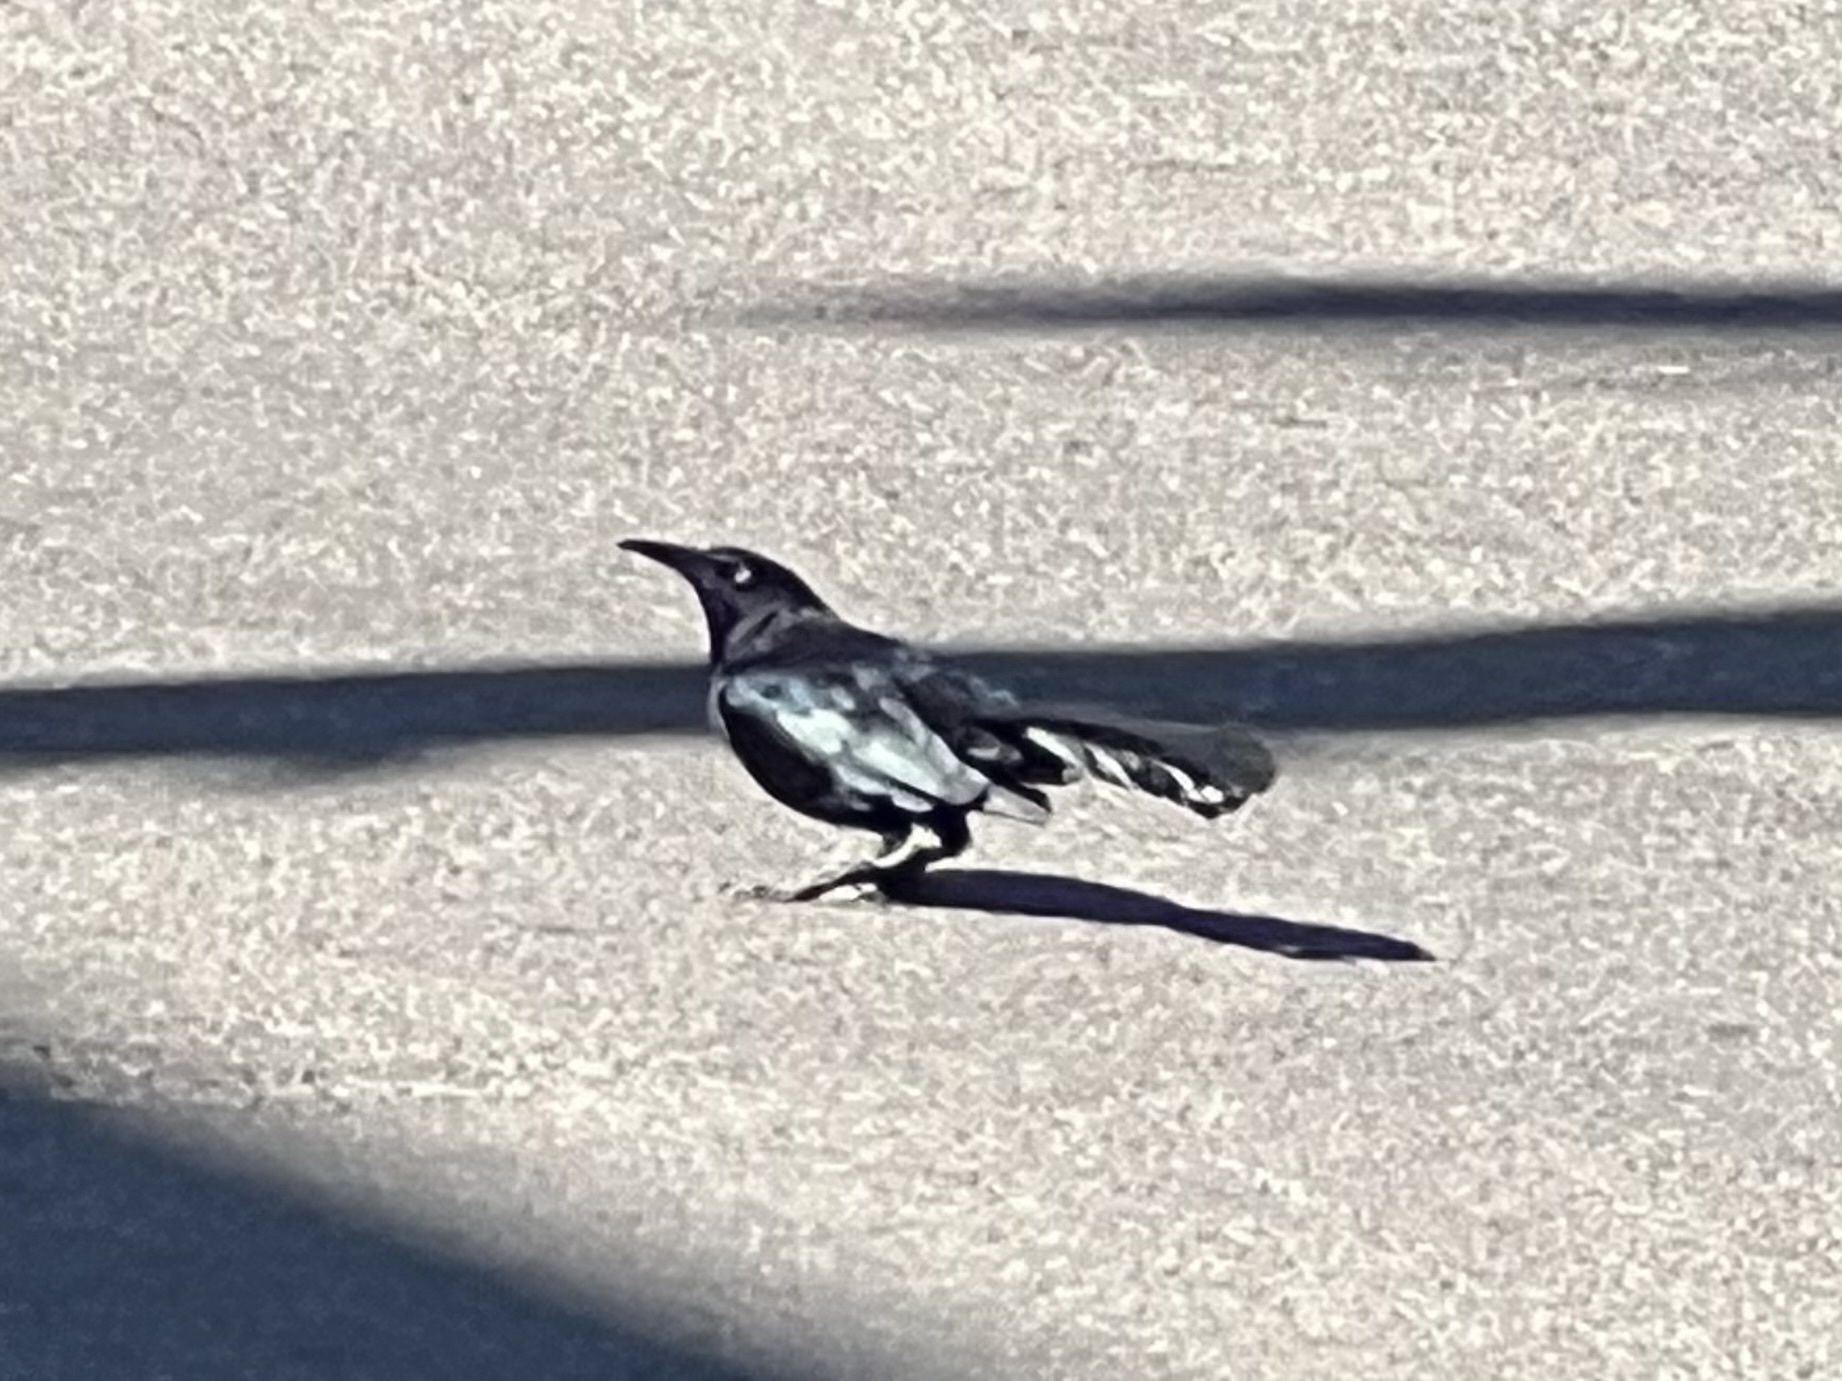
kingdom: Animalia
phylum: Chordata
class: Aves
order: Passeriformes
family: Icteridae
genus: Quiscalus
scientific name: Quiscalus mexicanus
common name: Great-tailed grackle
